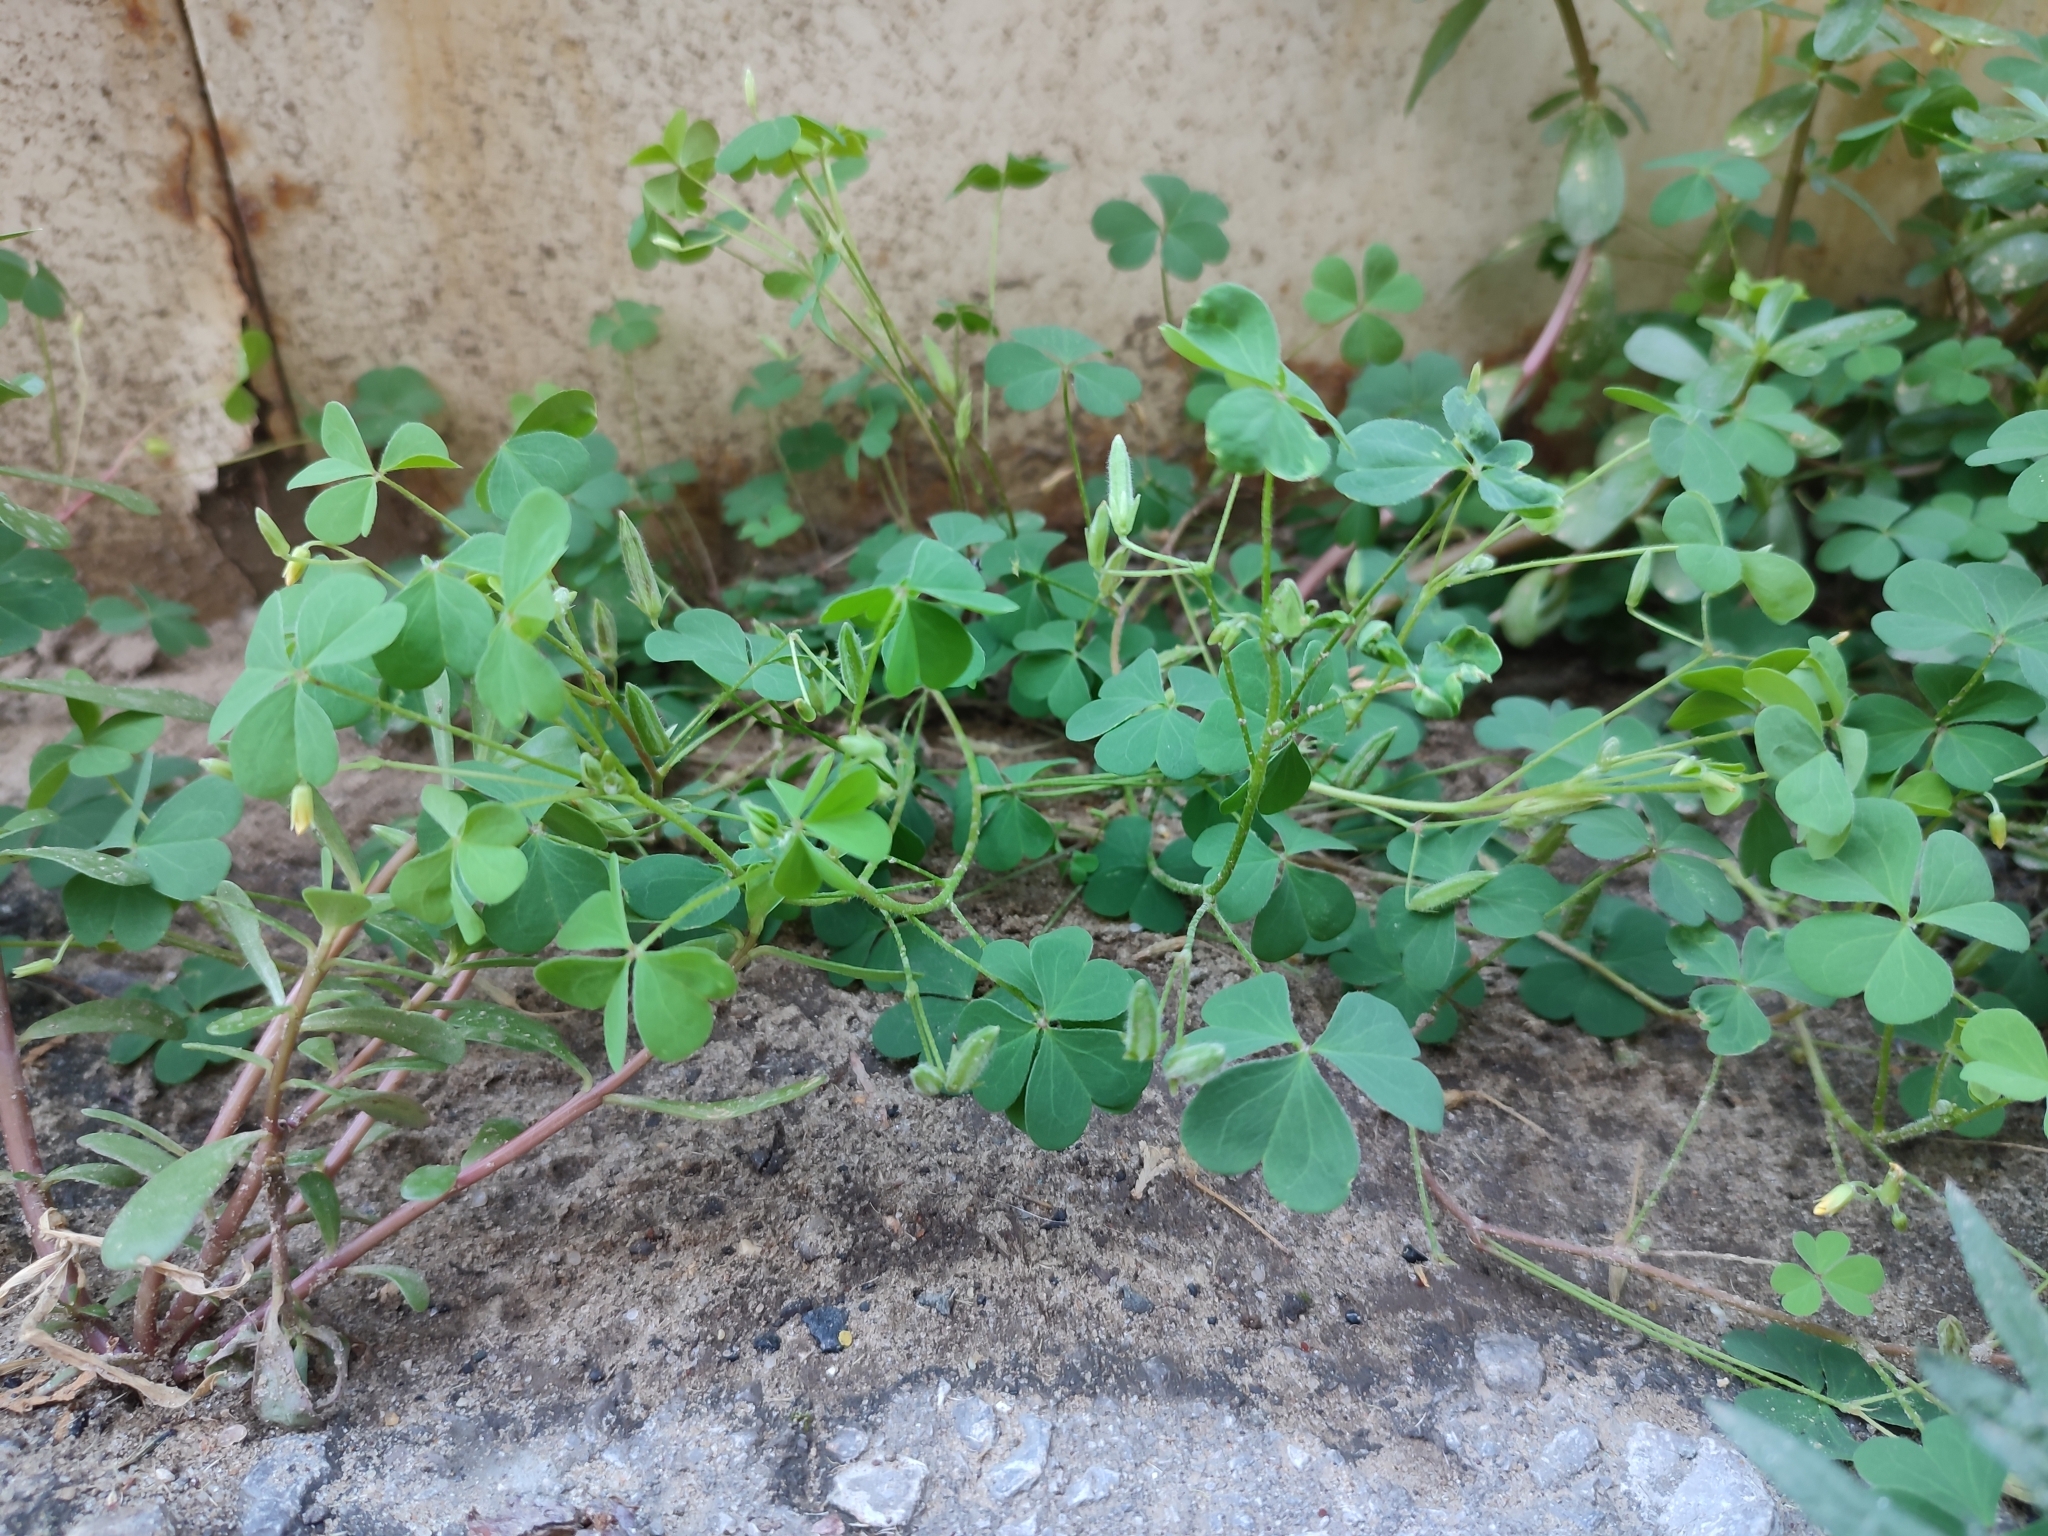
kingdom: Plantae
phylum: Tracheophyta
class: Magnoliopsida
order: Oxalidales
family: Oxalidaceae
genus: Oxalis
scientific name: Oxalis dillenii
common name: Sussex yellow-sorrel
